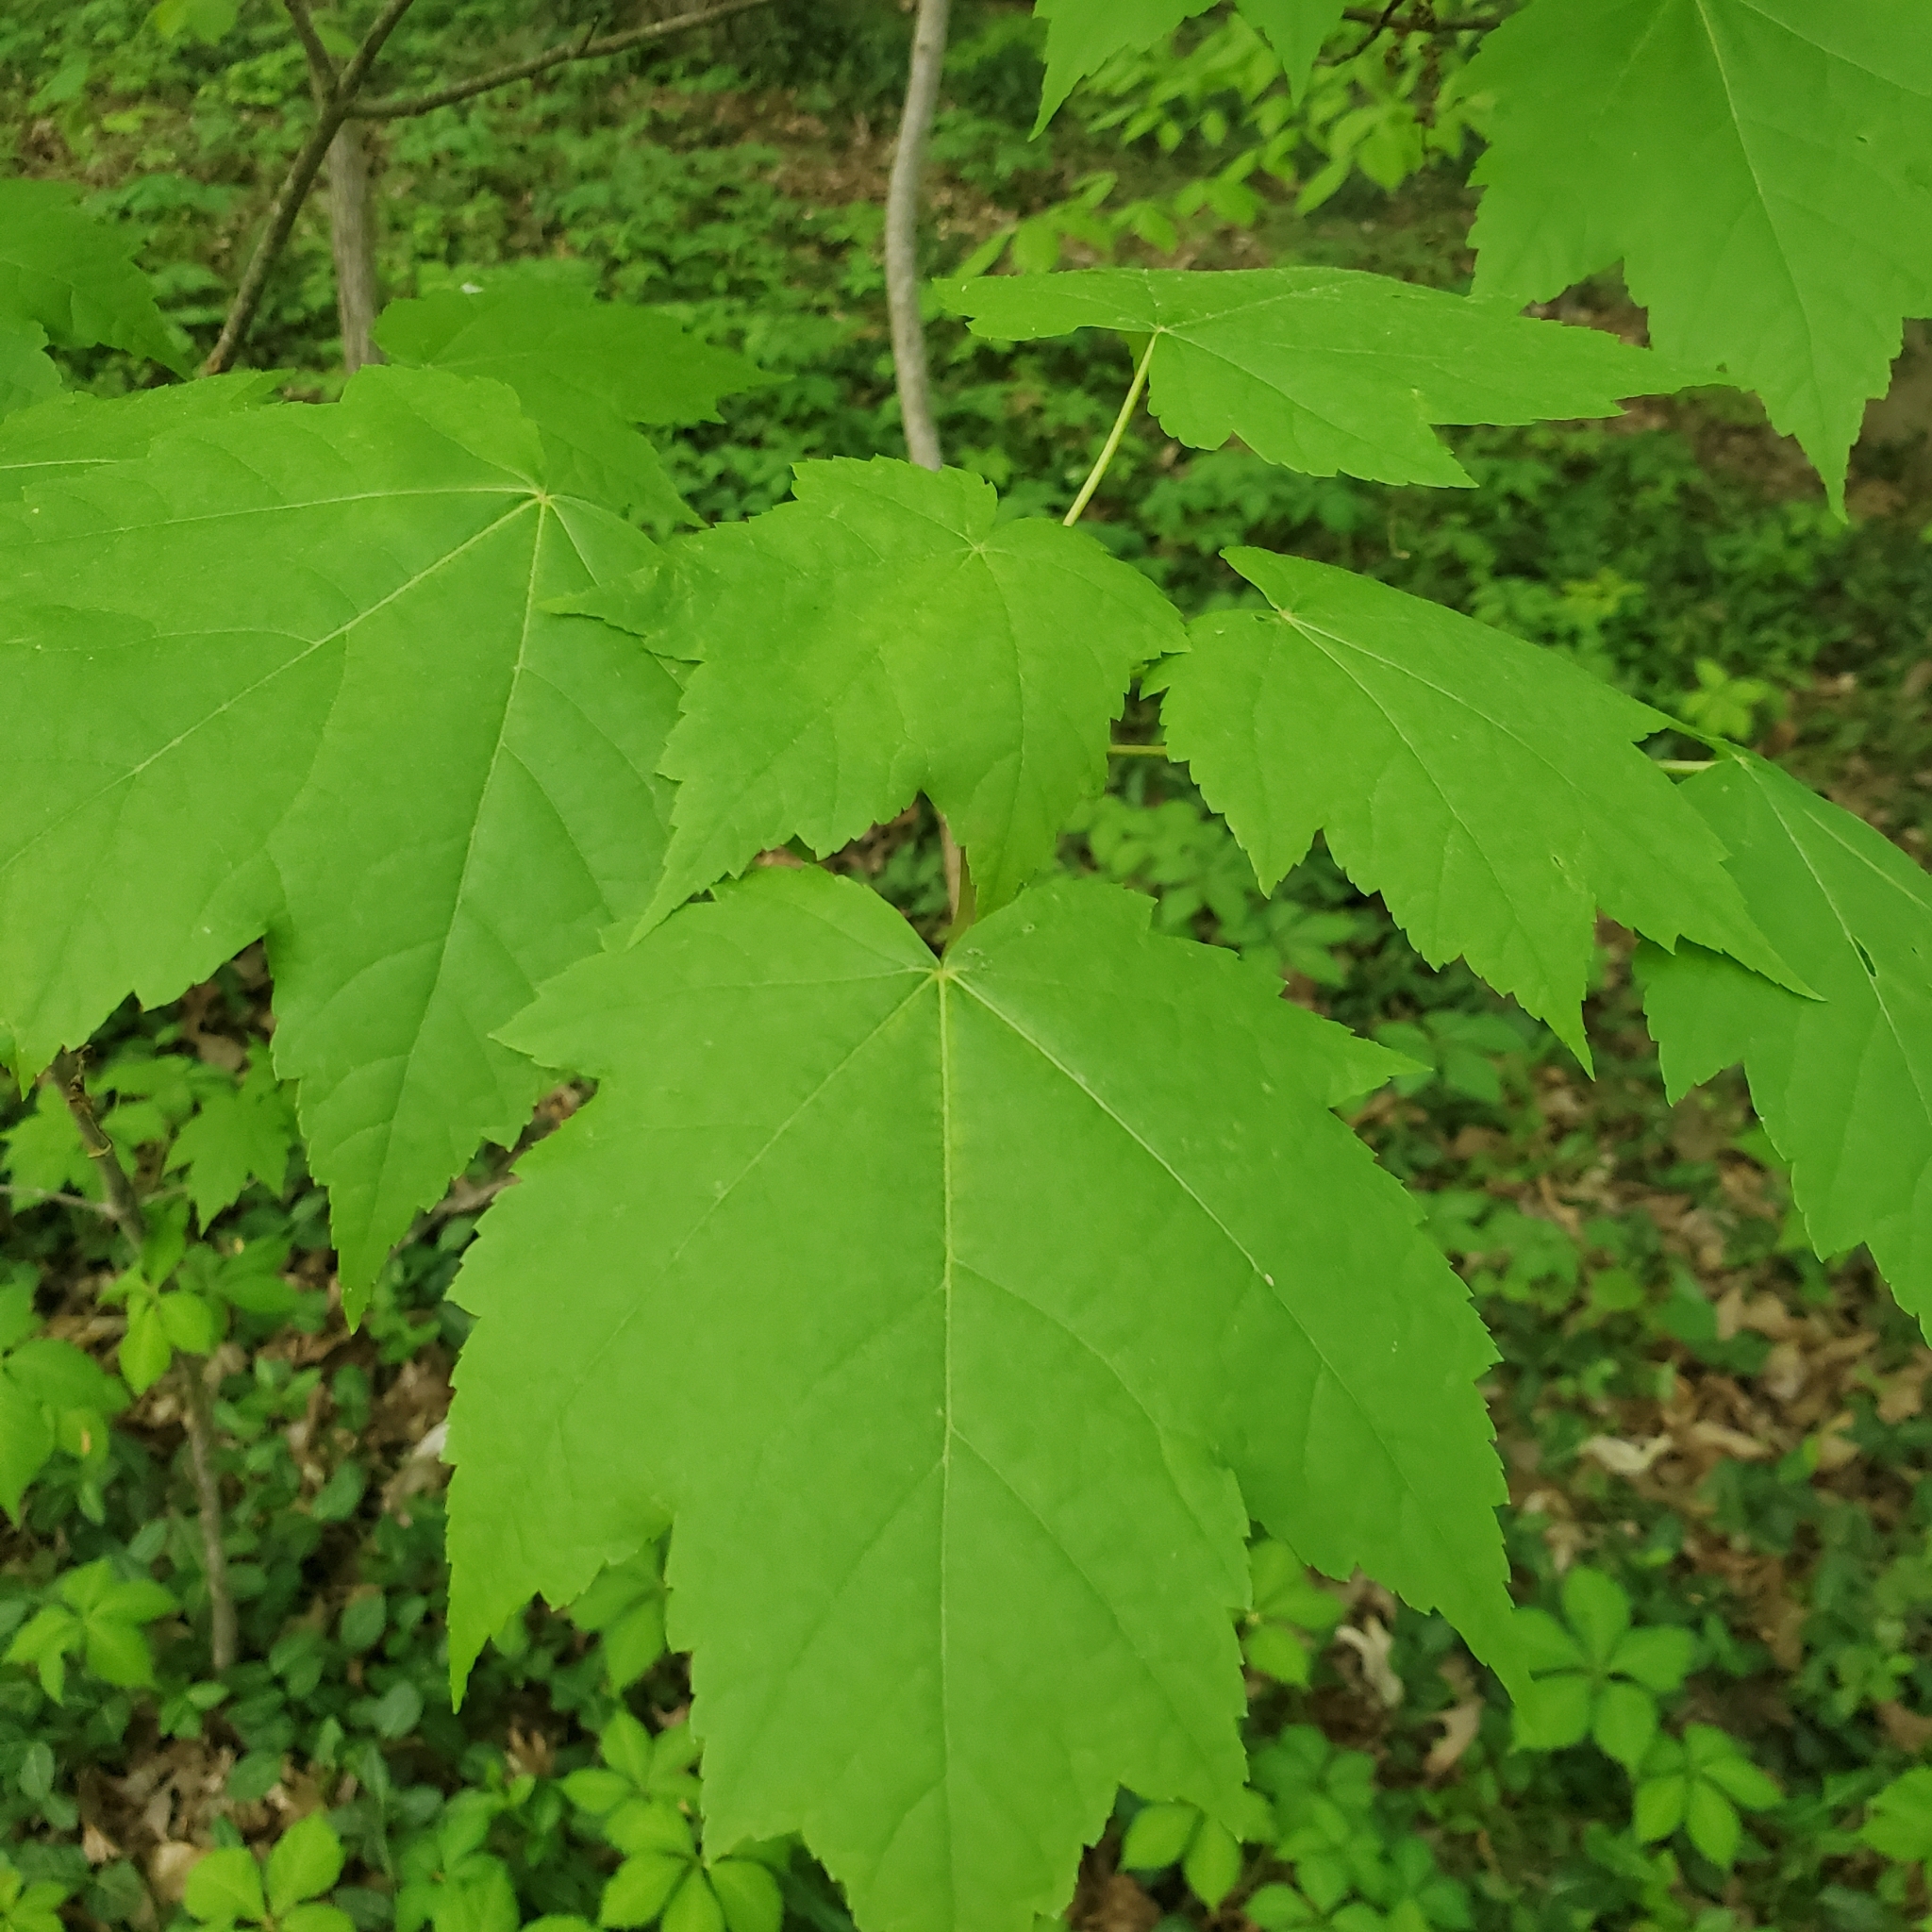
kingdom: Plantae
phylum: Tracheophyta
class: Magnoliopsida
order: Sapindales
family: Sapindaceae
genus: Acer
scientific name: Acer rubrum
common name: Red maple
